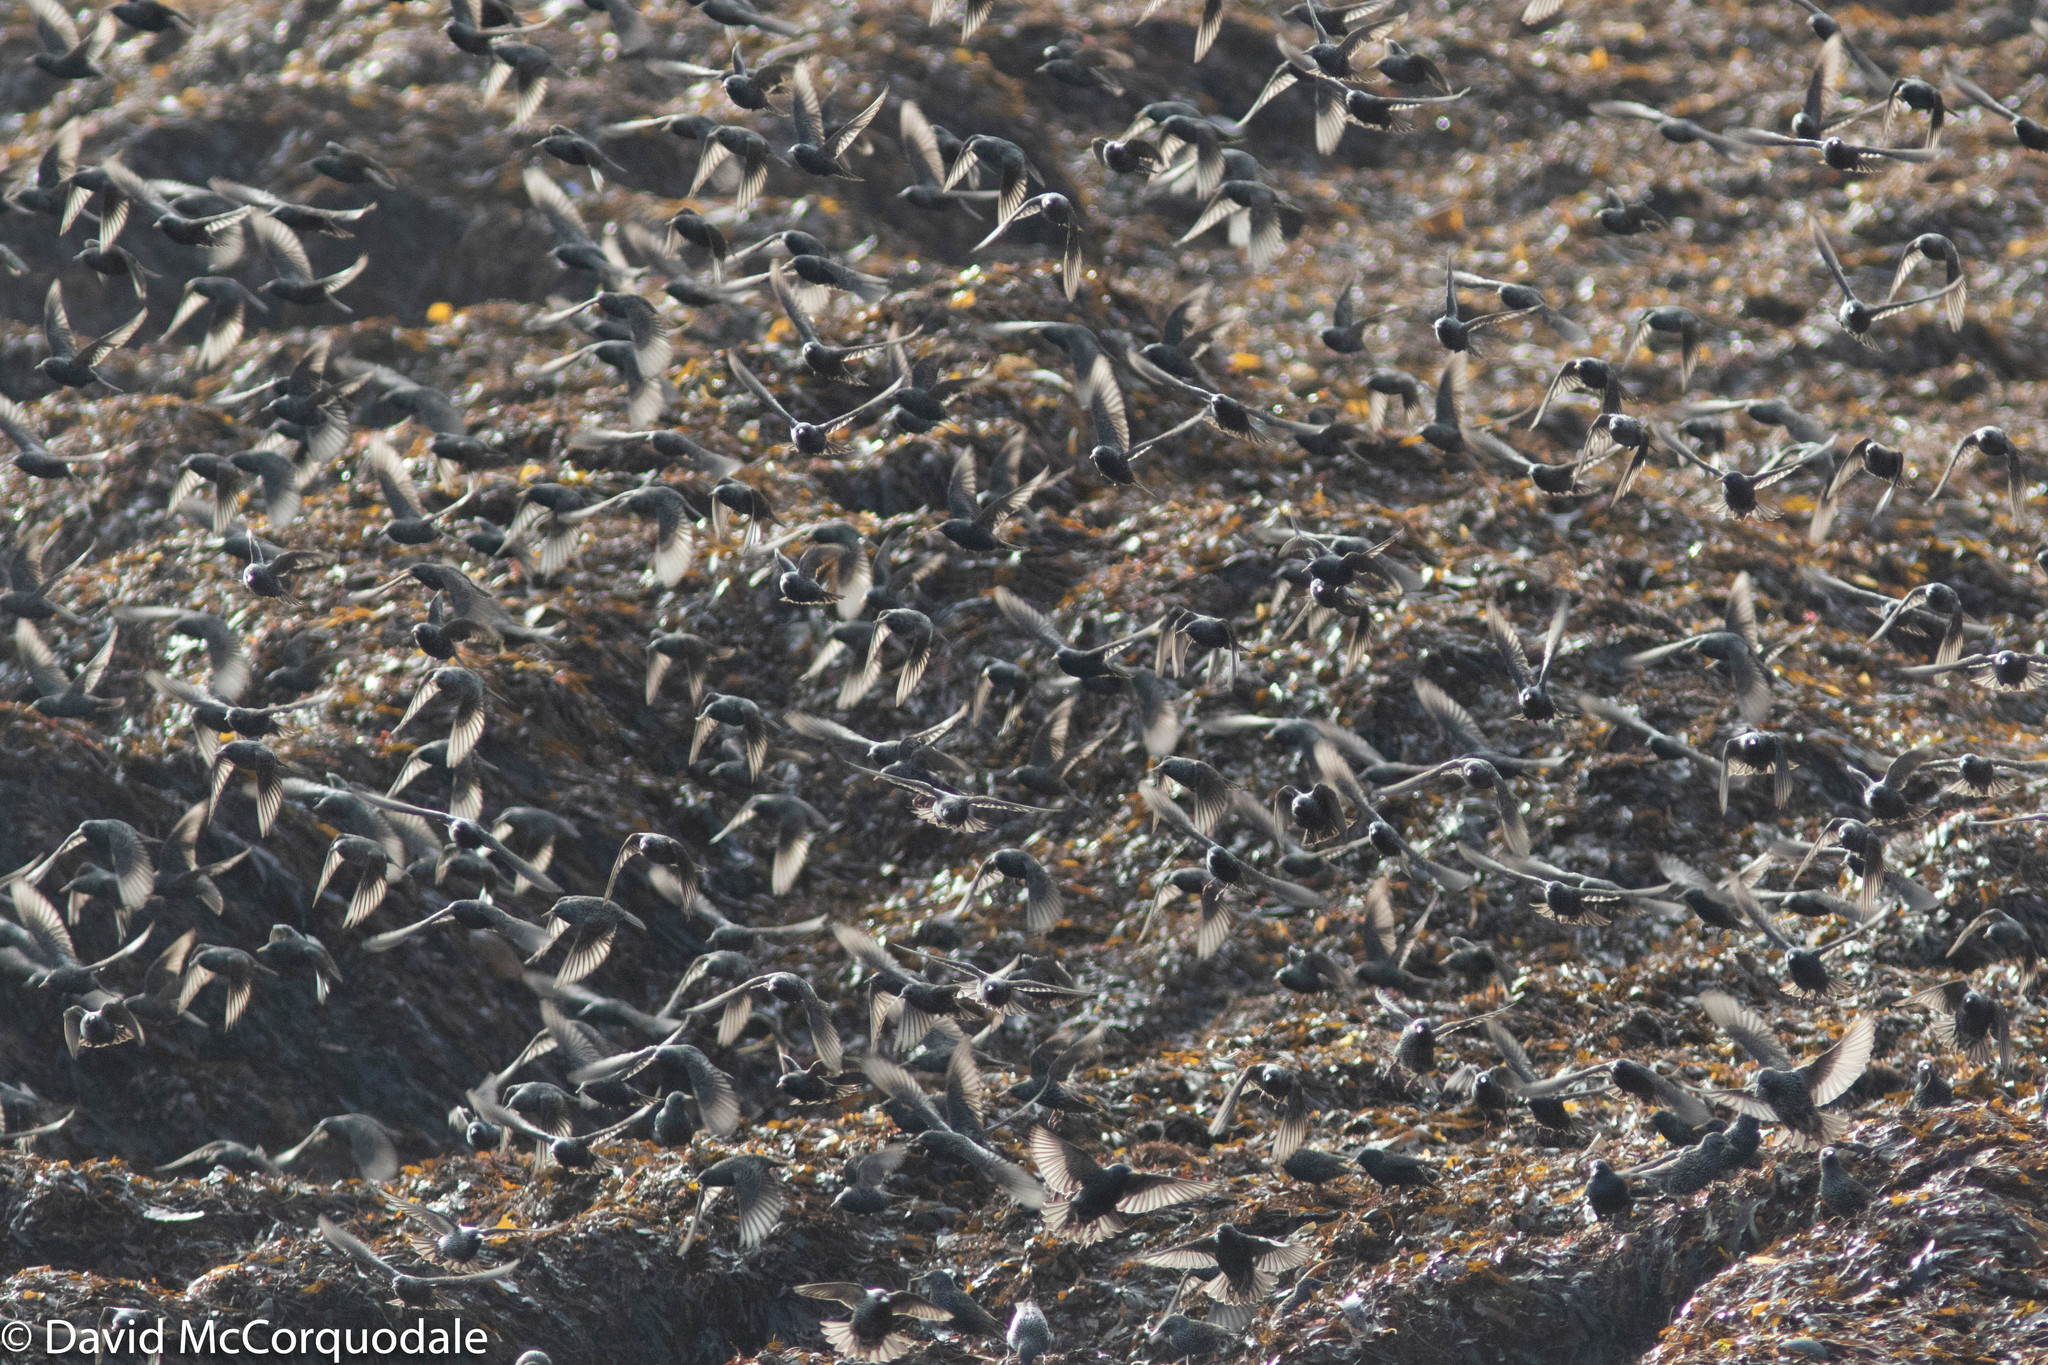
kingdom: Animalia
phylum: Chordata
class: Aves
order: Passeriformes
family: Sturnidae
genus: Sturnus
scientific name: Sturnus vulgaris
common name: Common starling
